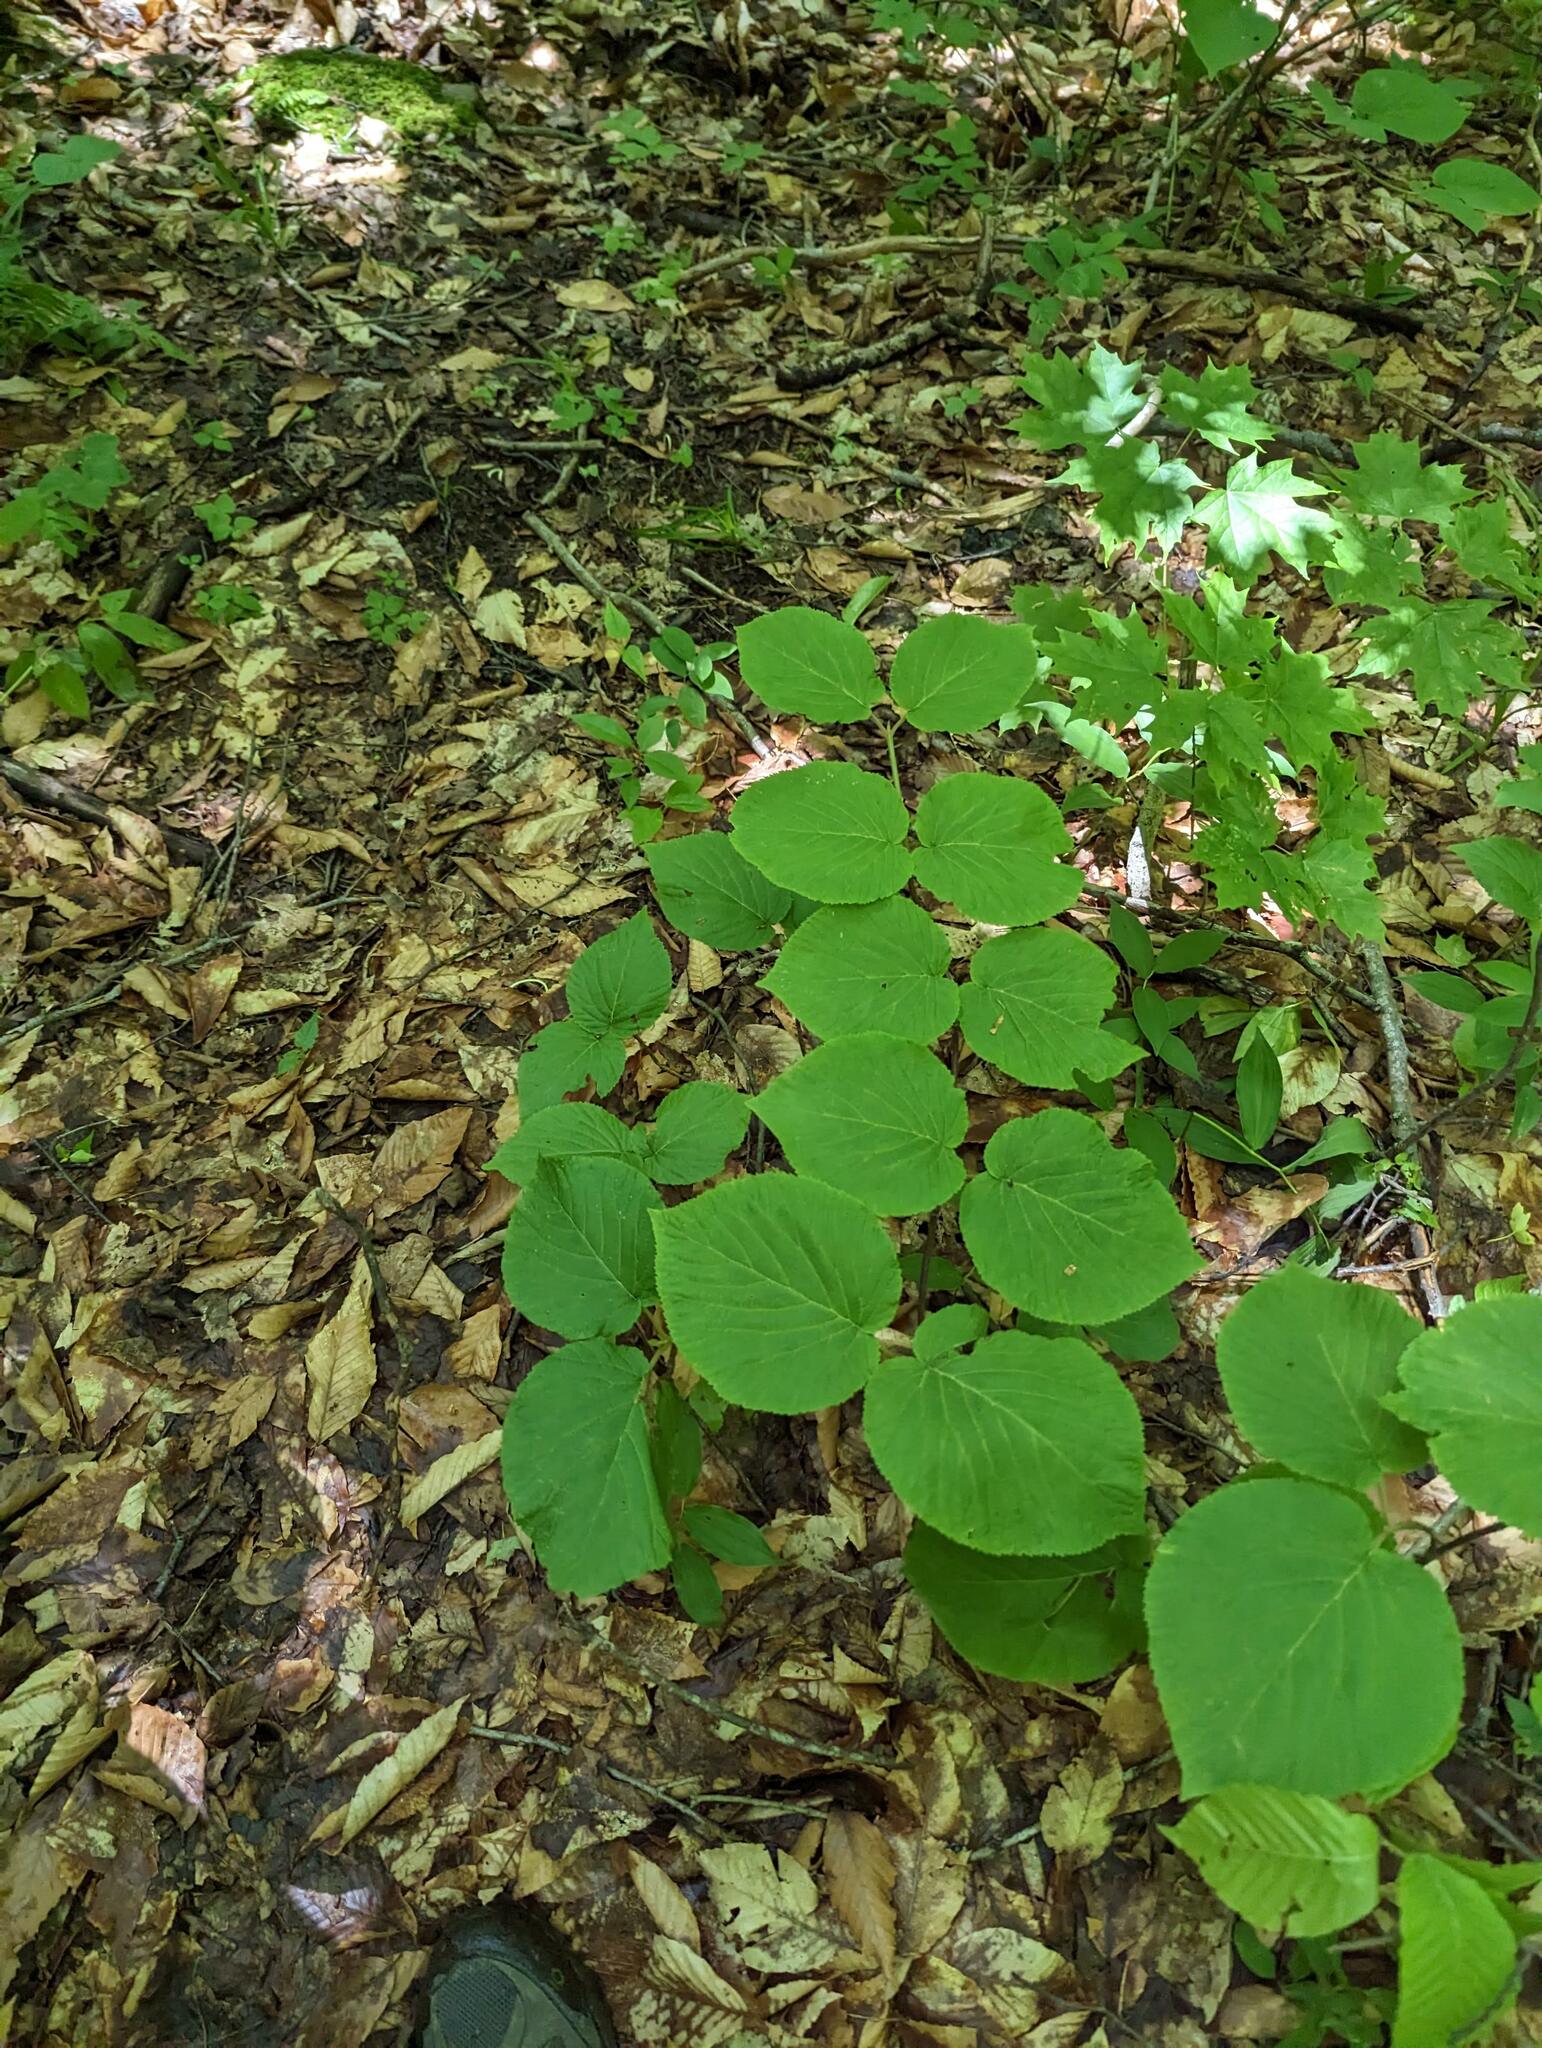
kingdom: Plantae
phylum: Tracheophyta
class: Magnoliopsida
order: Dipsacales
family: Viburnaceae
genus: Viburnum
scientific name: Viburnum lantanoides
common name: Hobblebush
